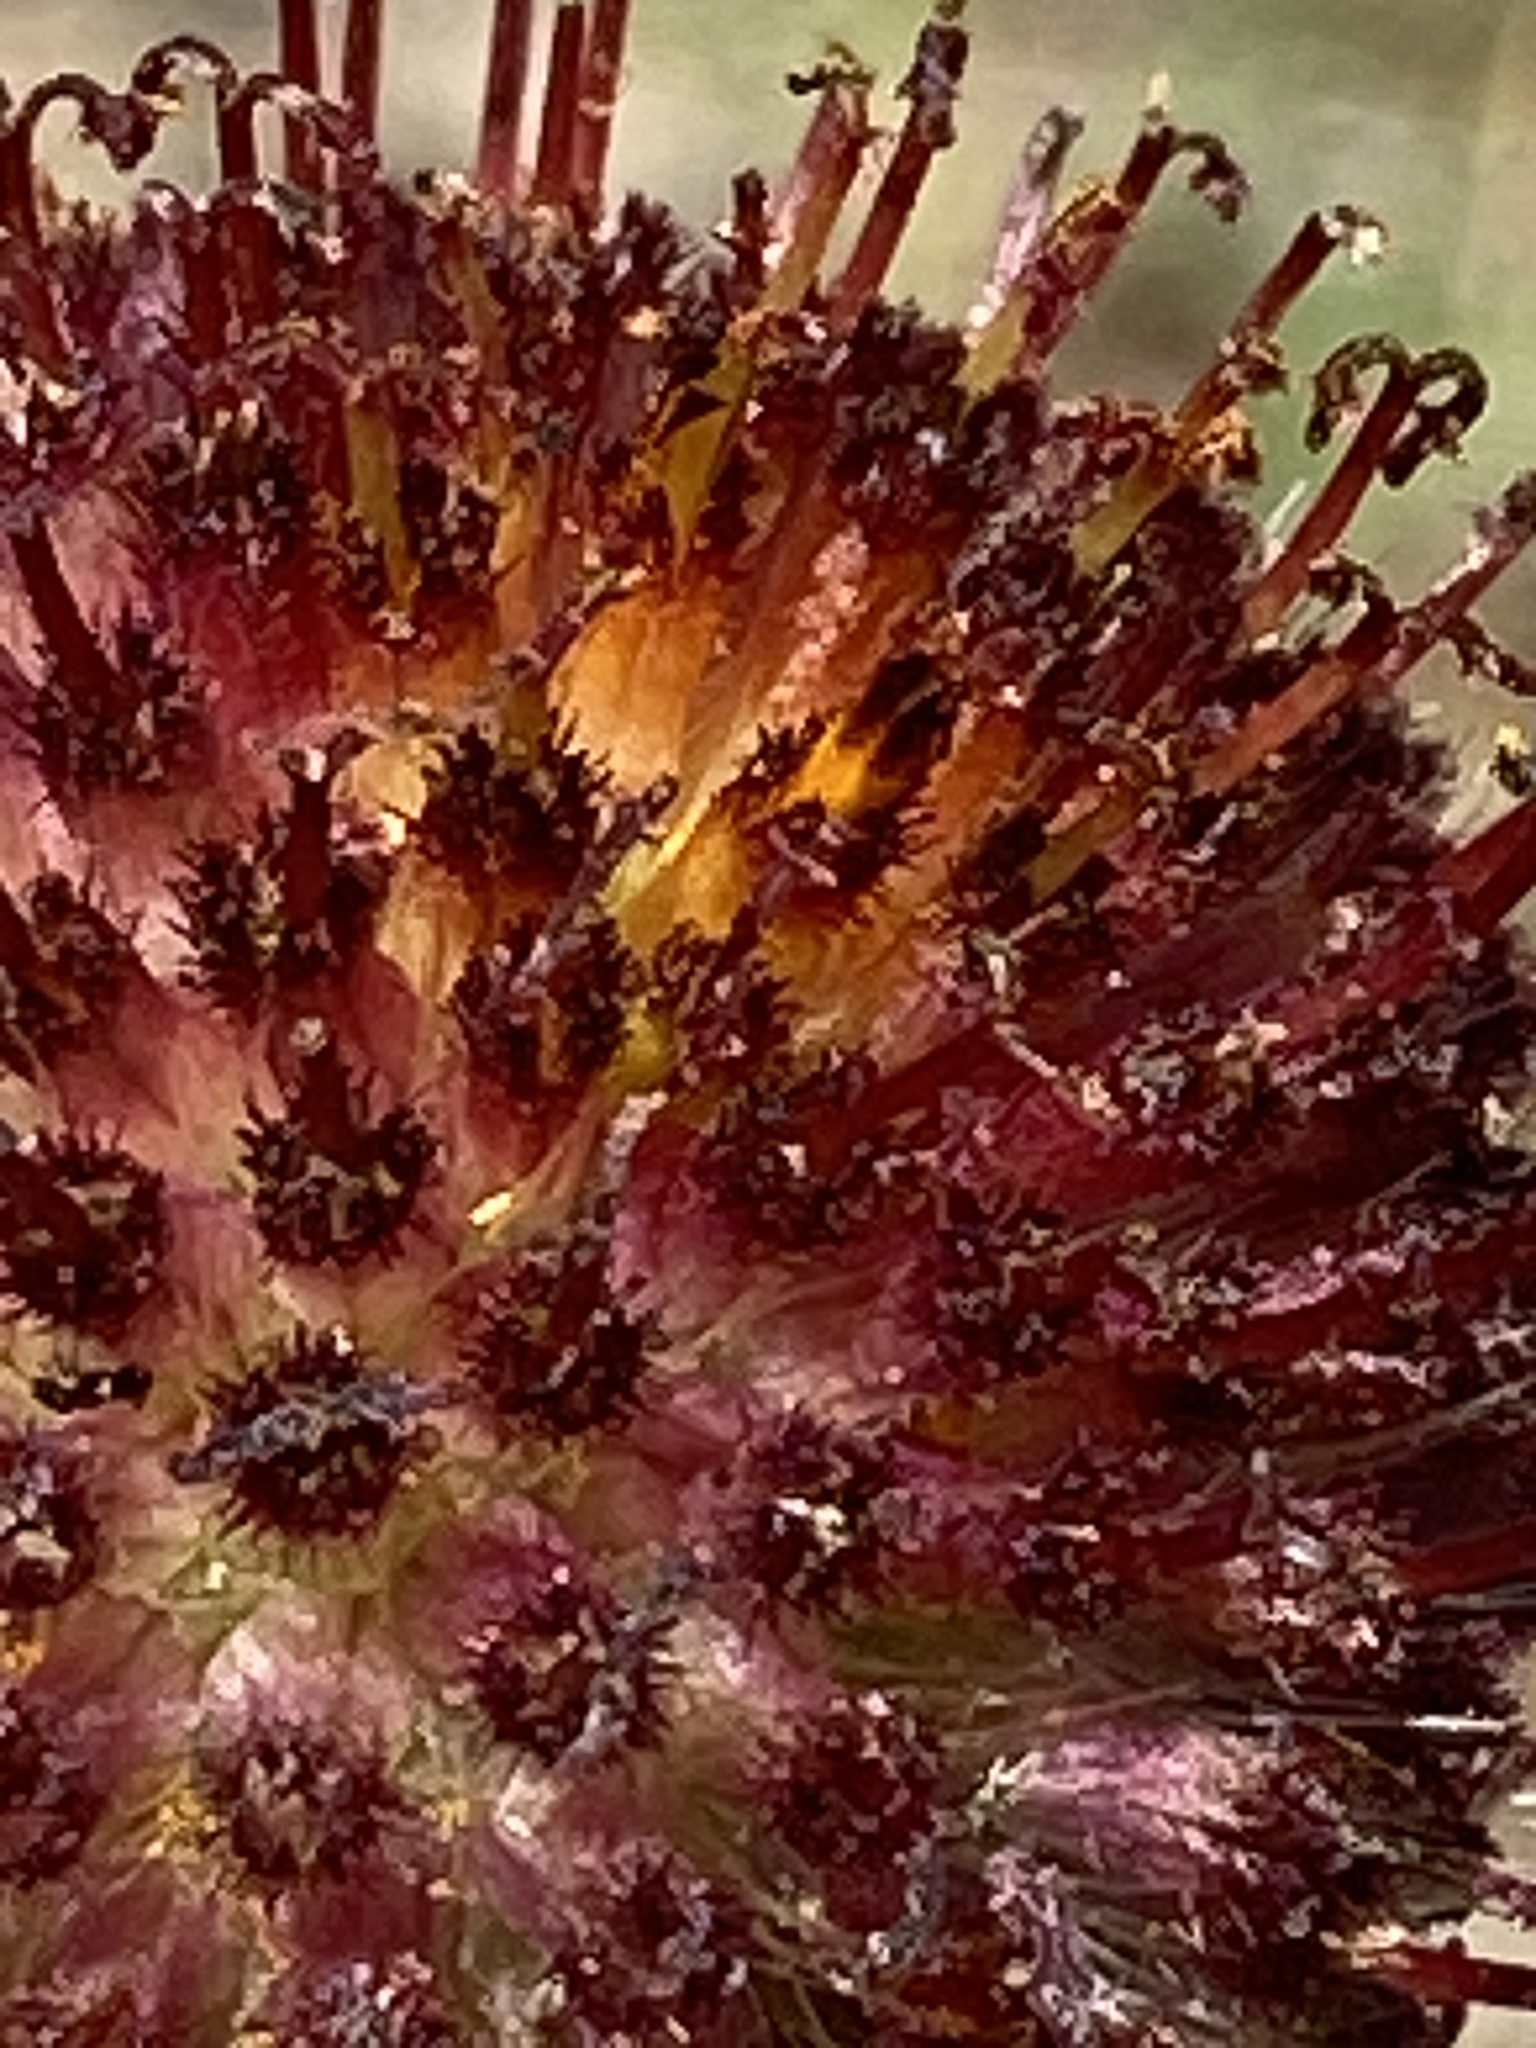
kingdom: Plantae
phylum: Tracheophyta
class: Magnoliopsida
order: Asterales
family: Asteraceae
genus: Gaillardia
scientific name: Gaillardia suavis
